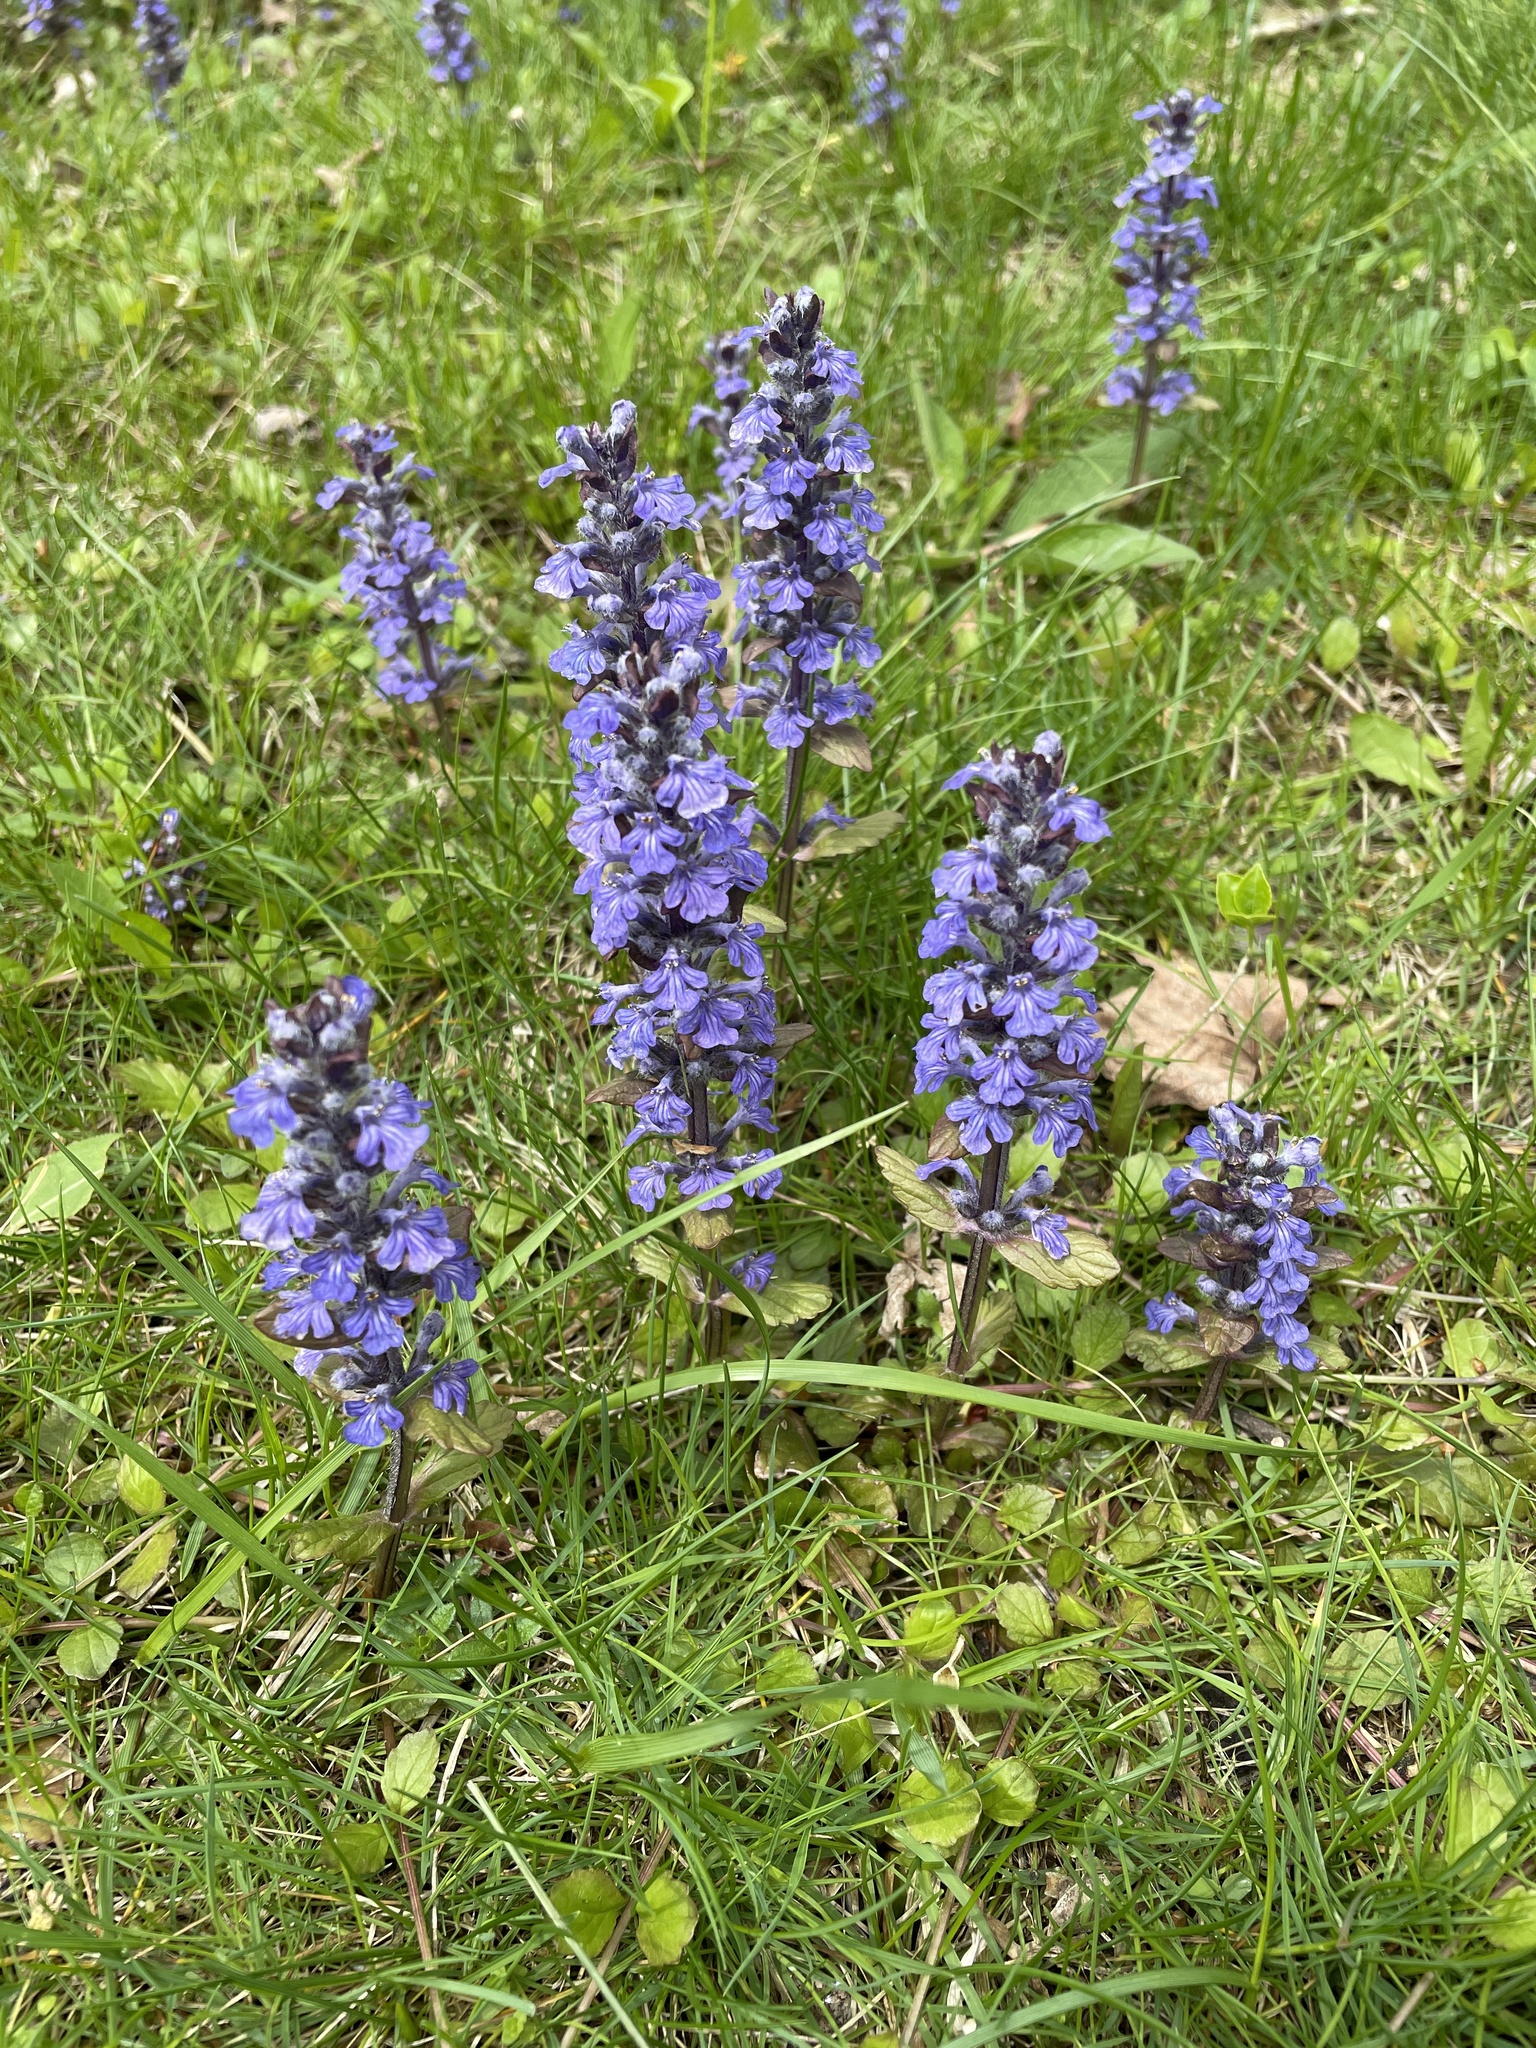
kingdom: Plantae
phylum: Tracheophyta
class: Magnoliopsida
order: Lamiales
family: Lamiaceae
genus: Ajuga
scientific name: Ajuga reptans
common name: Bugle
